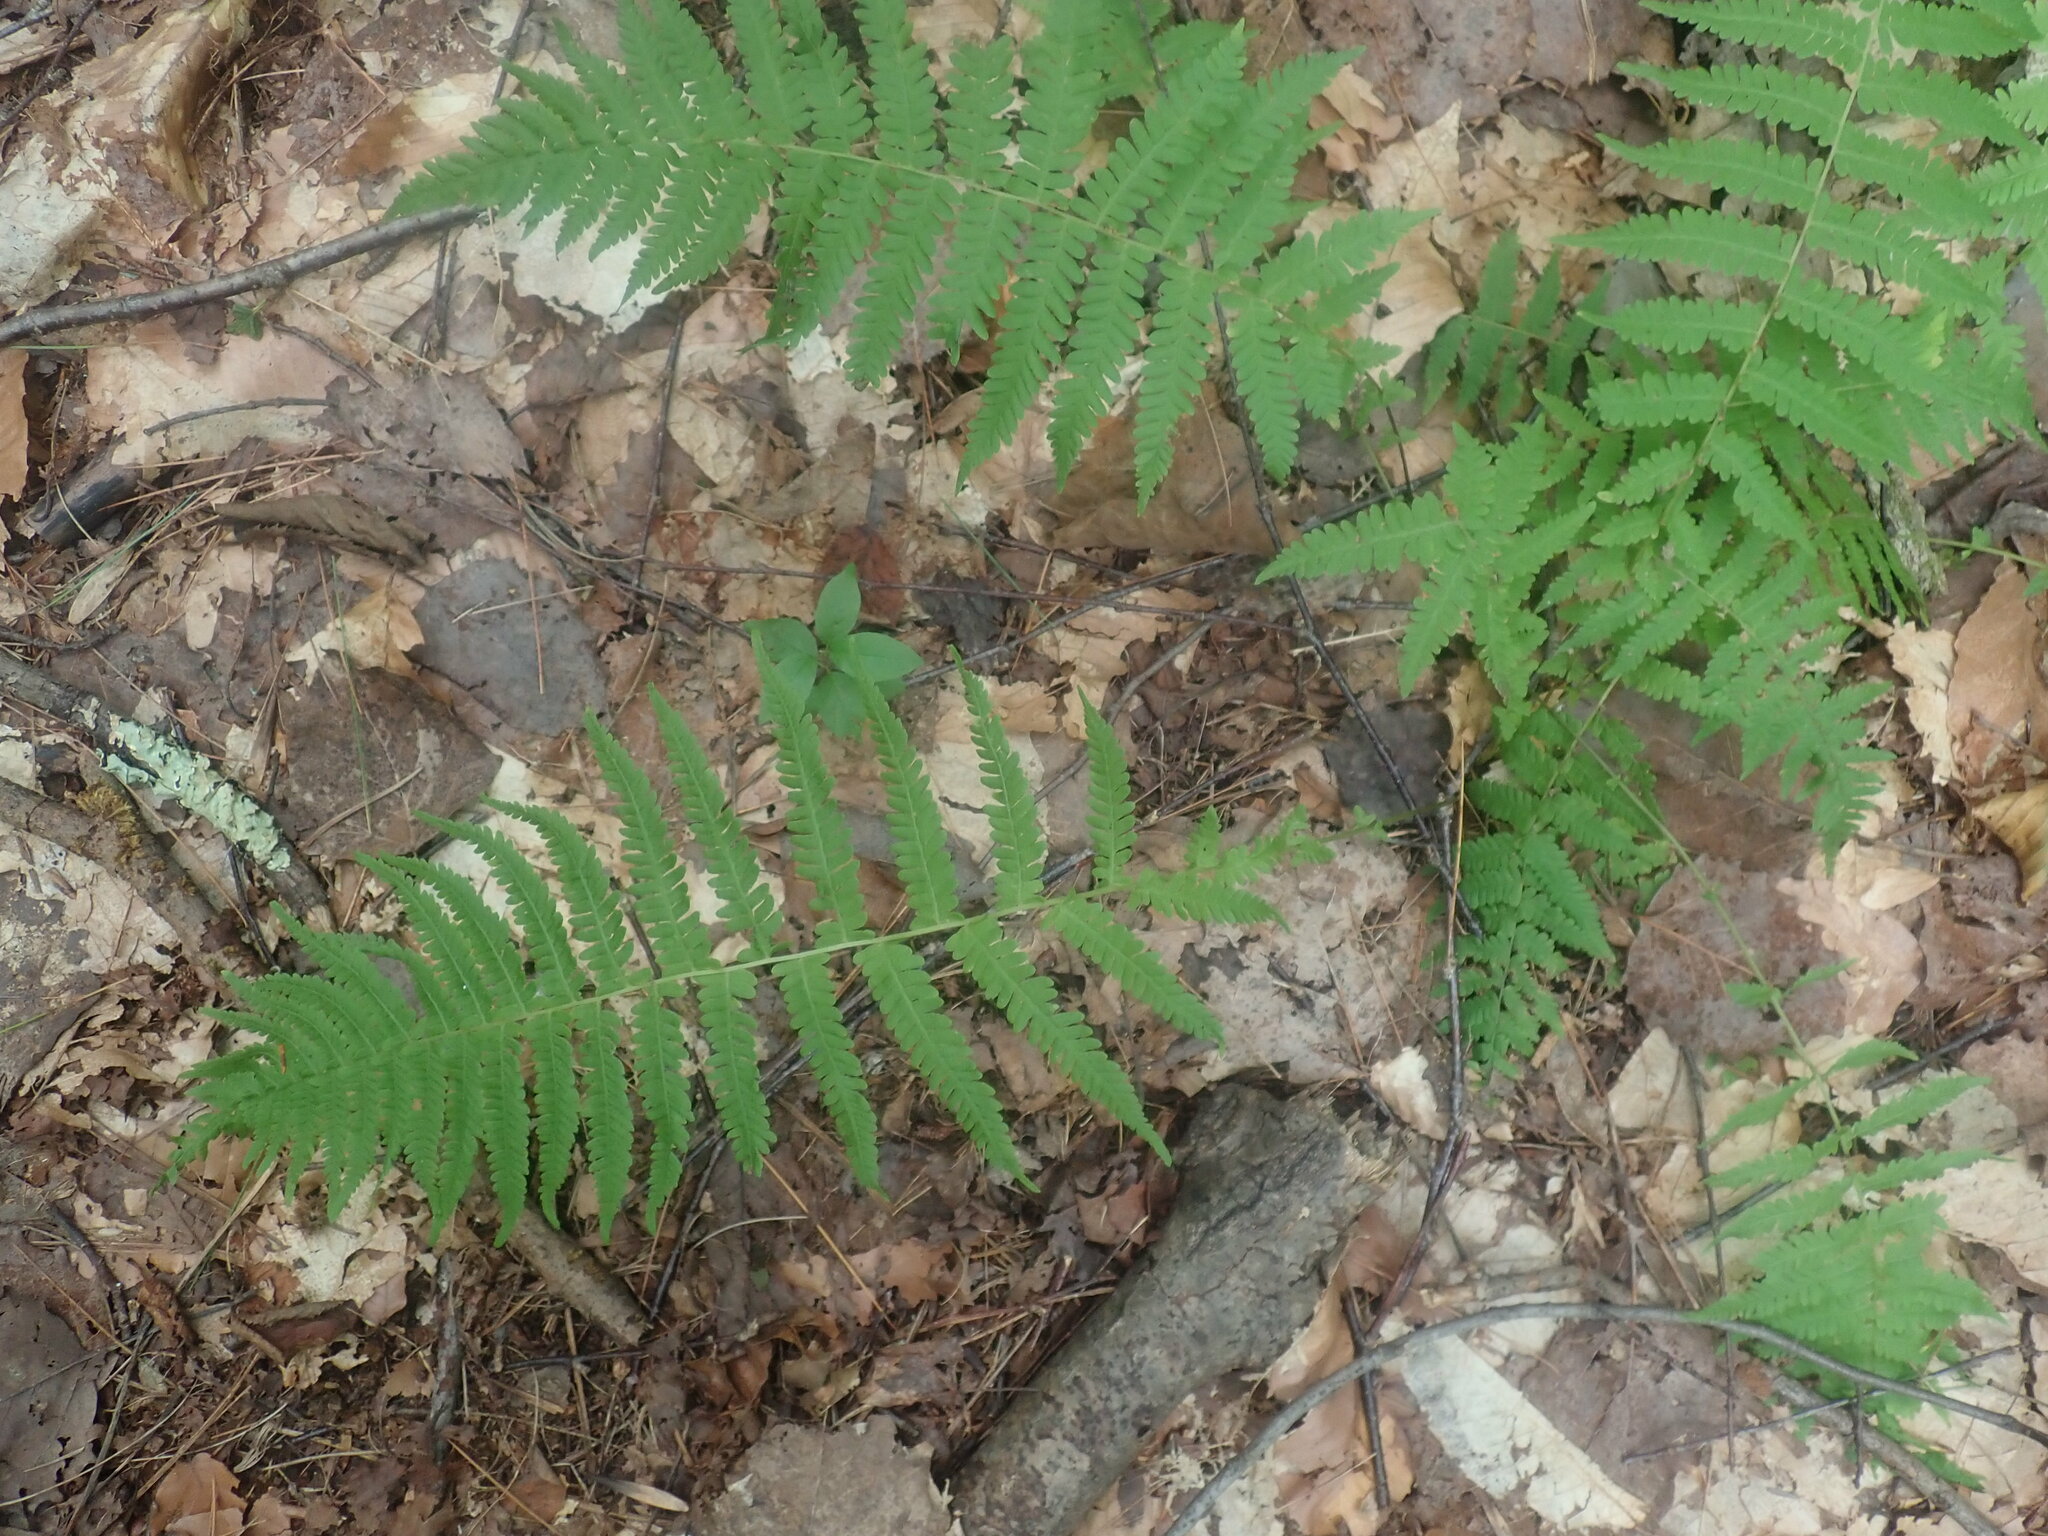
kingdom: Plantae
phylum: Tracheophyta
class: Polypodiopsida
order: Polypodiales
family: Thelypteridaceae
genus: Amauropelta
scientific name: Amauropelta noveboracensis
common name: New york fern
